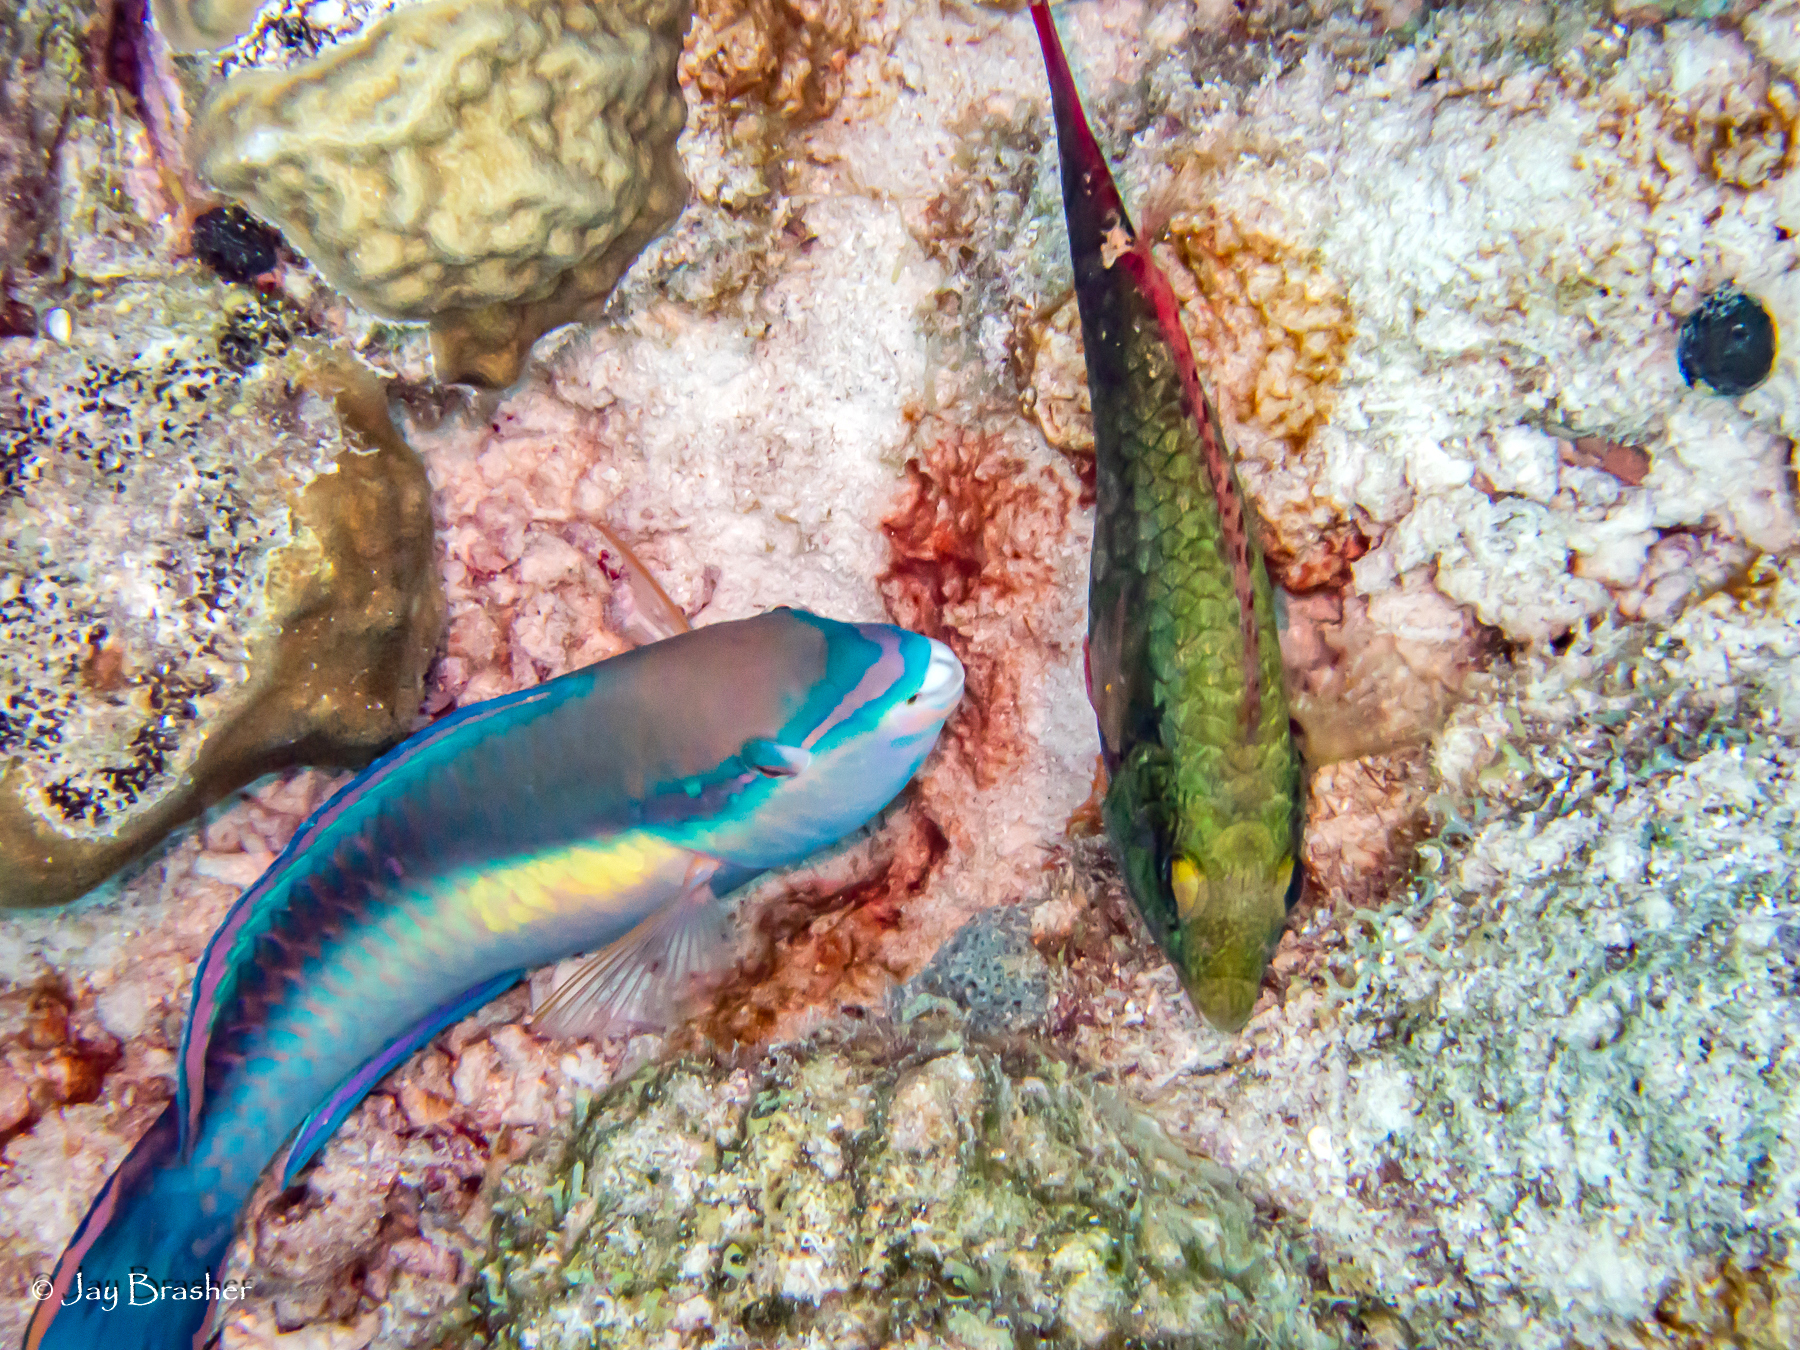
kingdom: Animalia
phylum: Chordata
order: Perciformes
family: Scaridae
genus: Scarus
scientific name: Scarus taeniopterus
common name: Princess parrotfish
